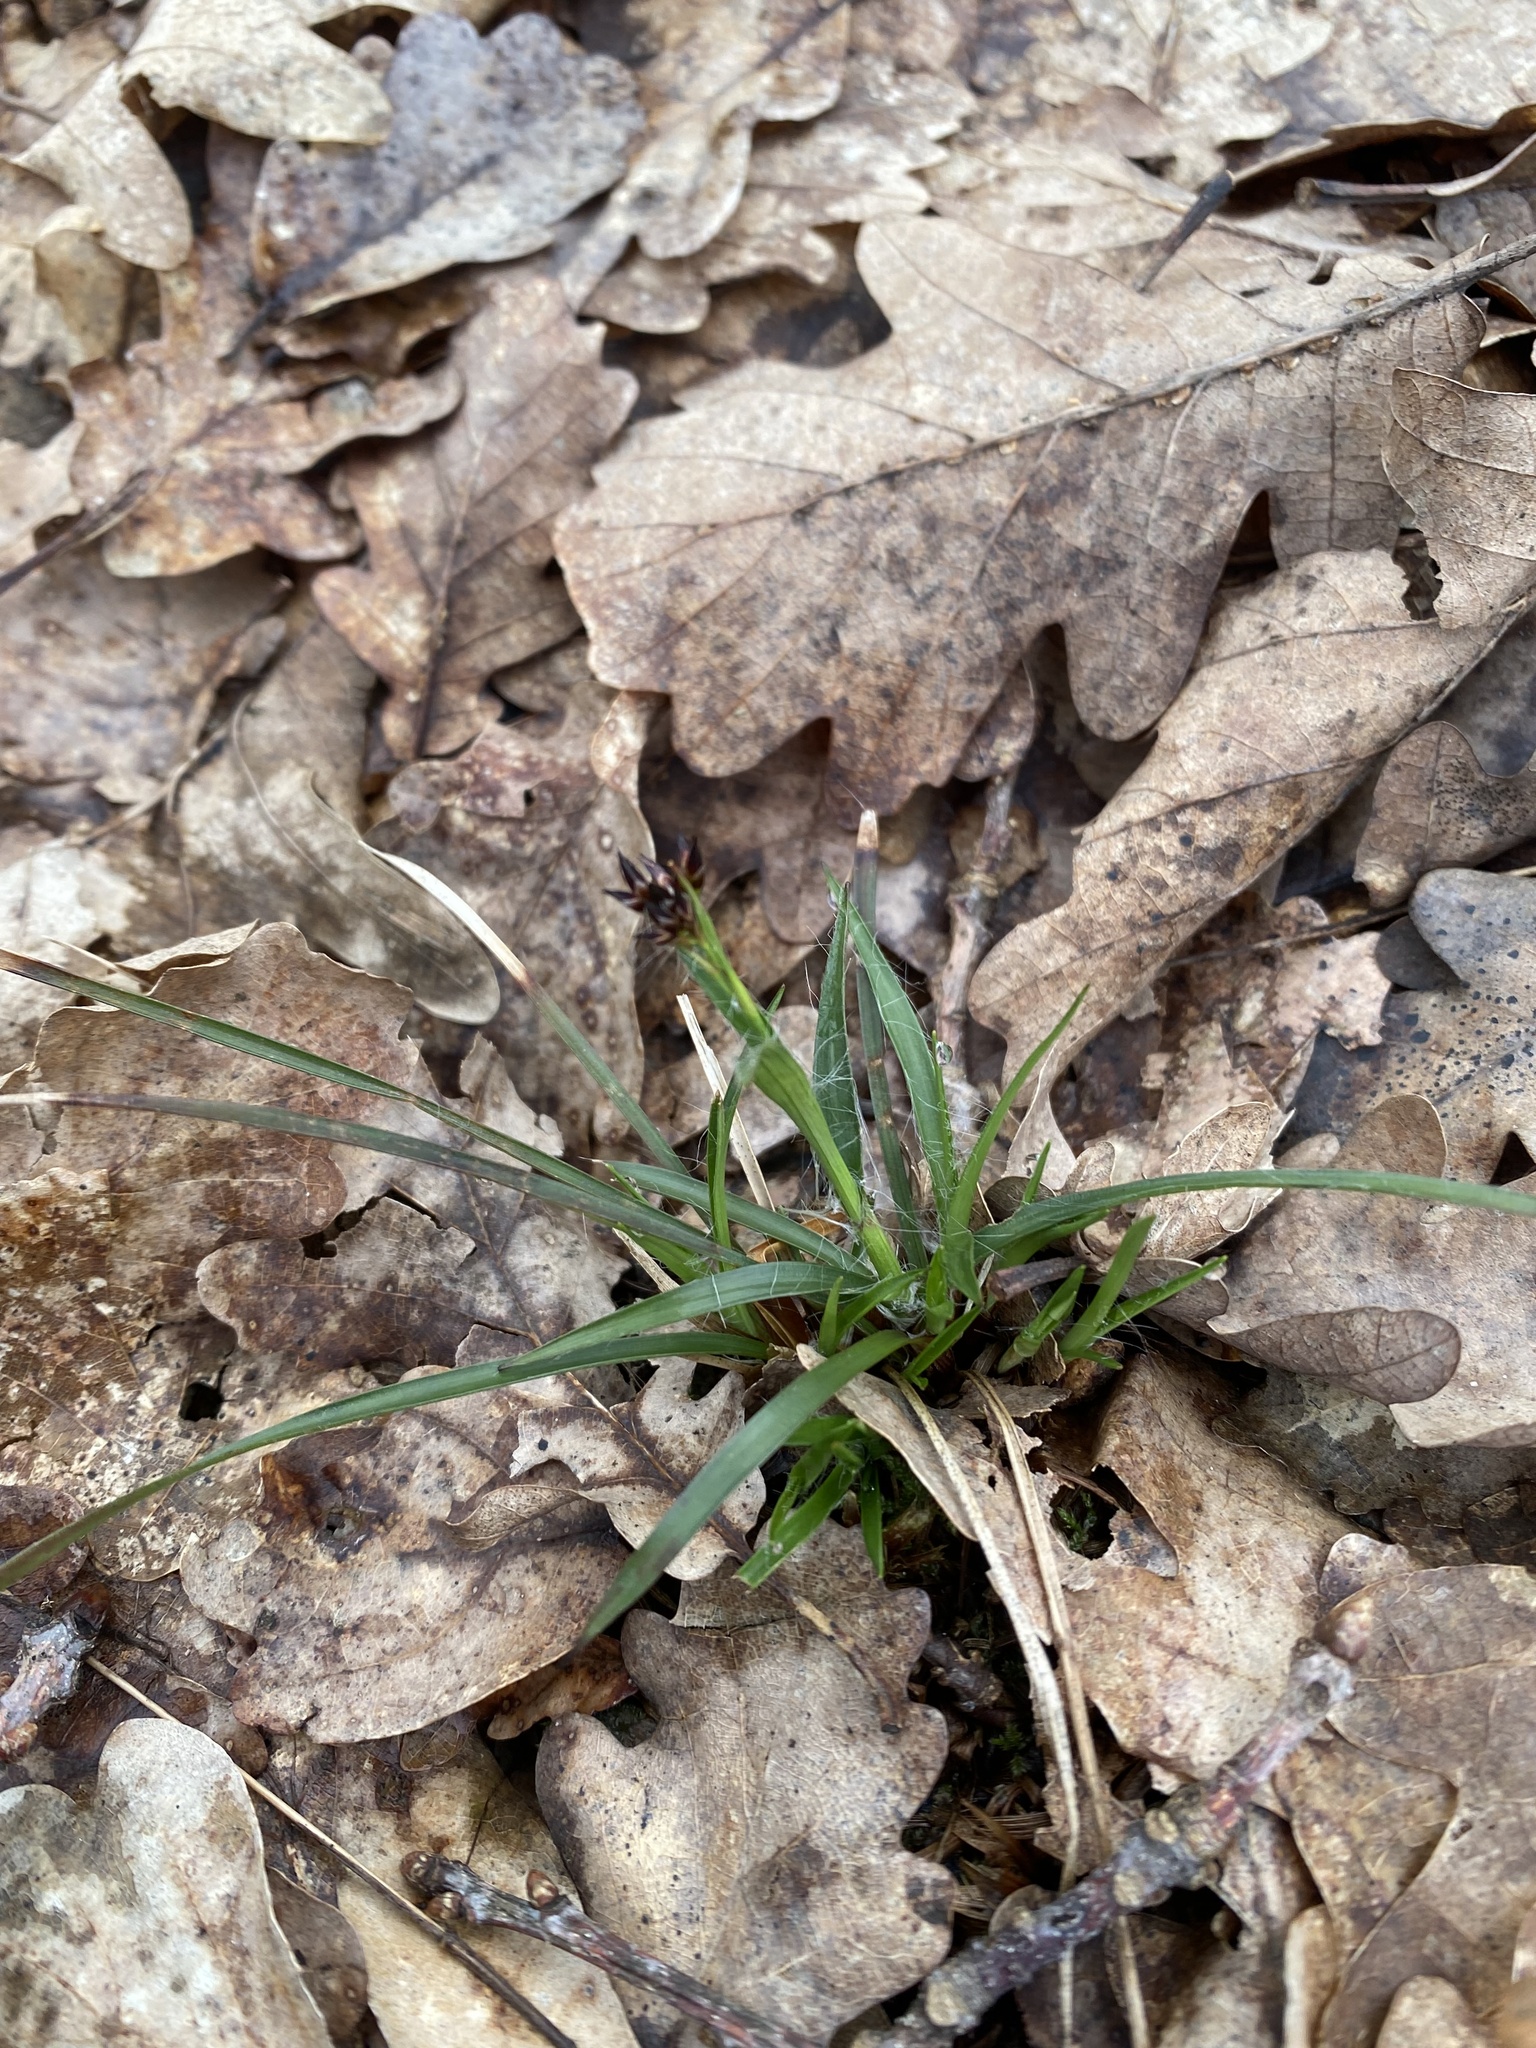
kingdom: Plantae
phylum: Tracheophyta
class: Liliopsida
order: Poales
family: Juncaceae
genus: Luzula
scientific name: Luzula forsteri
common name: Southern wood-rush
